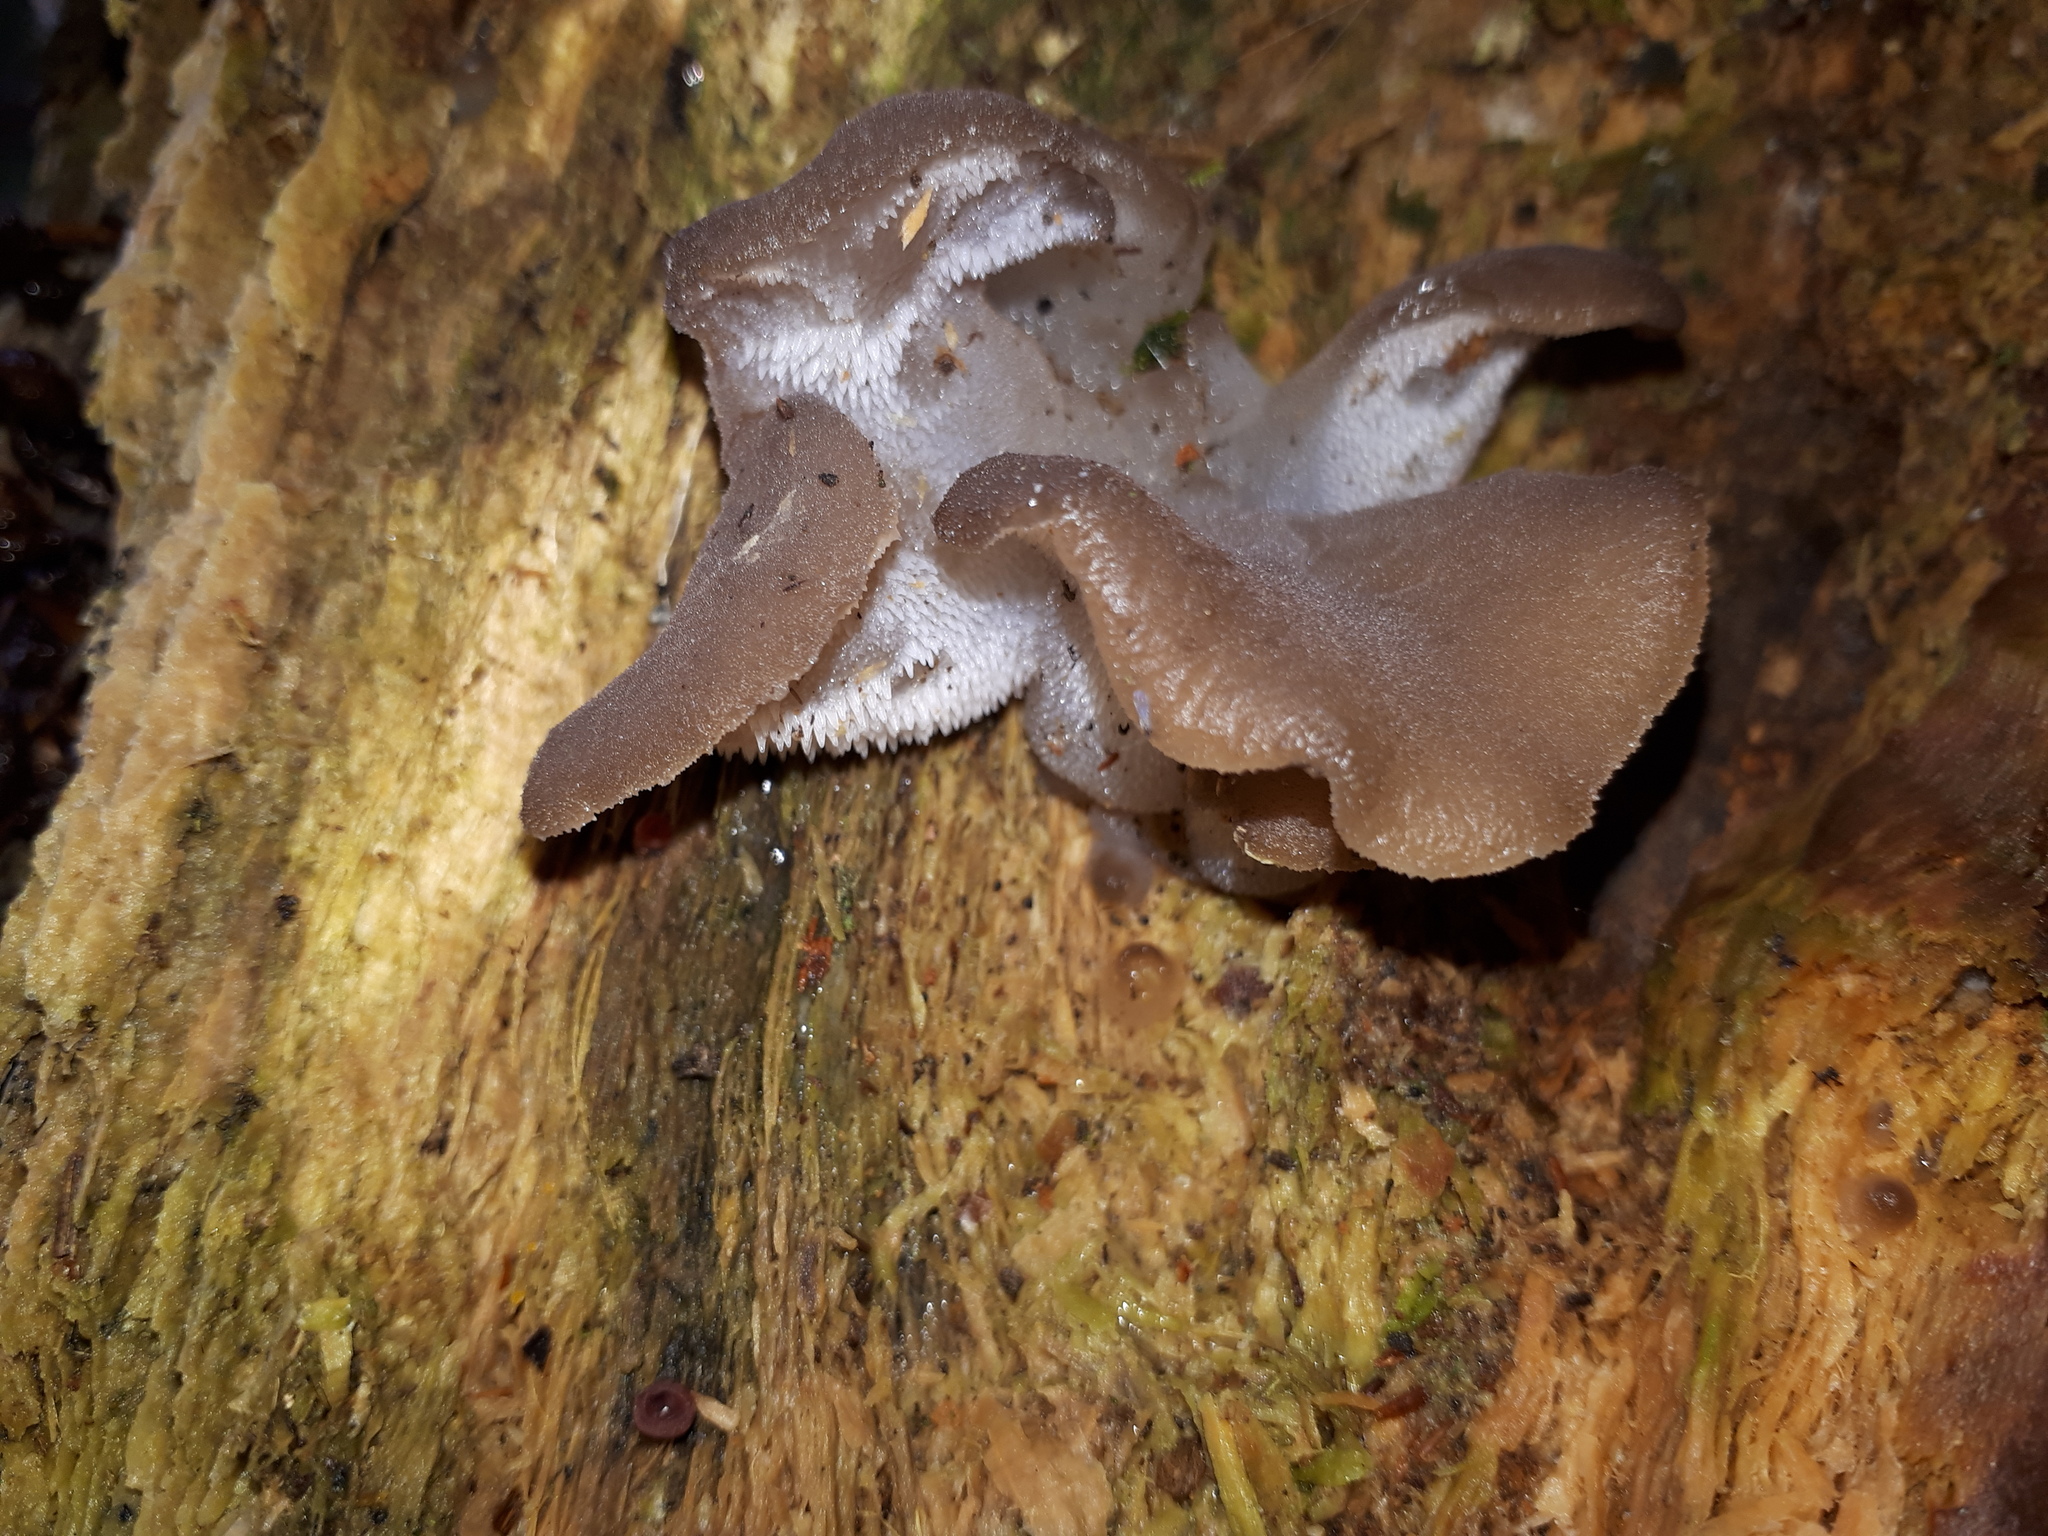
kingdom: Fungi
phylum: Basidiomycota
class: Agaricomycetes
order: Auriculariales
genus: Pseudohydnum
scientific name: Pseudohydnum gelatinosum
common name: Jelly tongue
